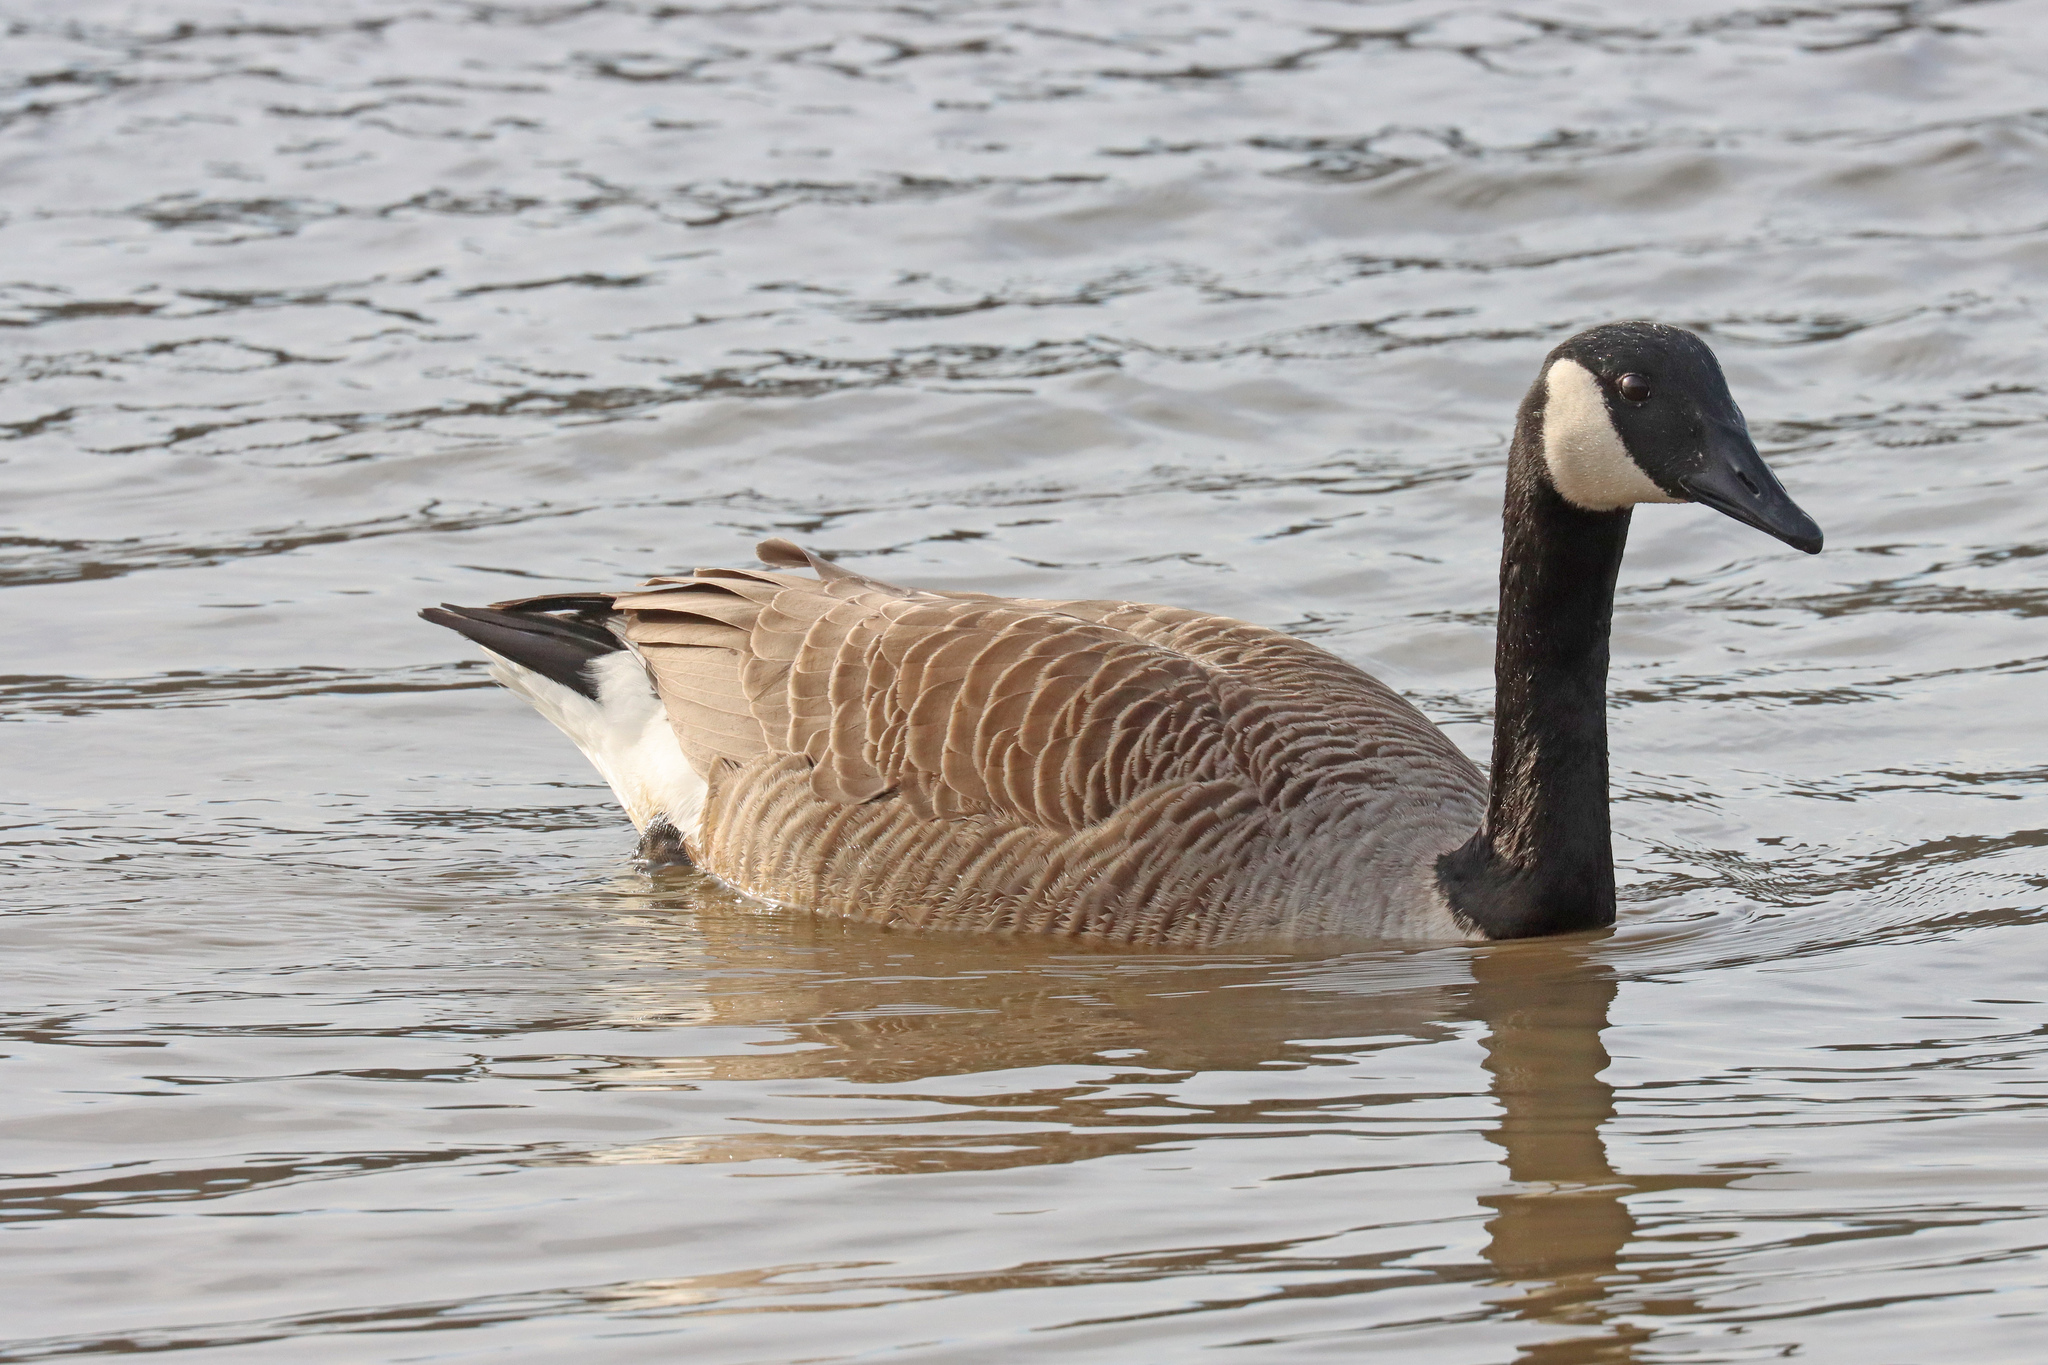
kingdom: Animalia
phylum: Chordata
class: Aves
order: Anseriformes
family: Anatidae
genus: Branta
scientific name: Branta canadensis
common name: Canada goose
